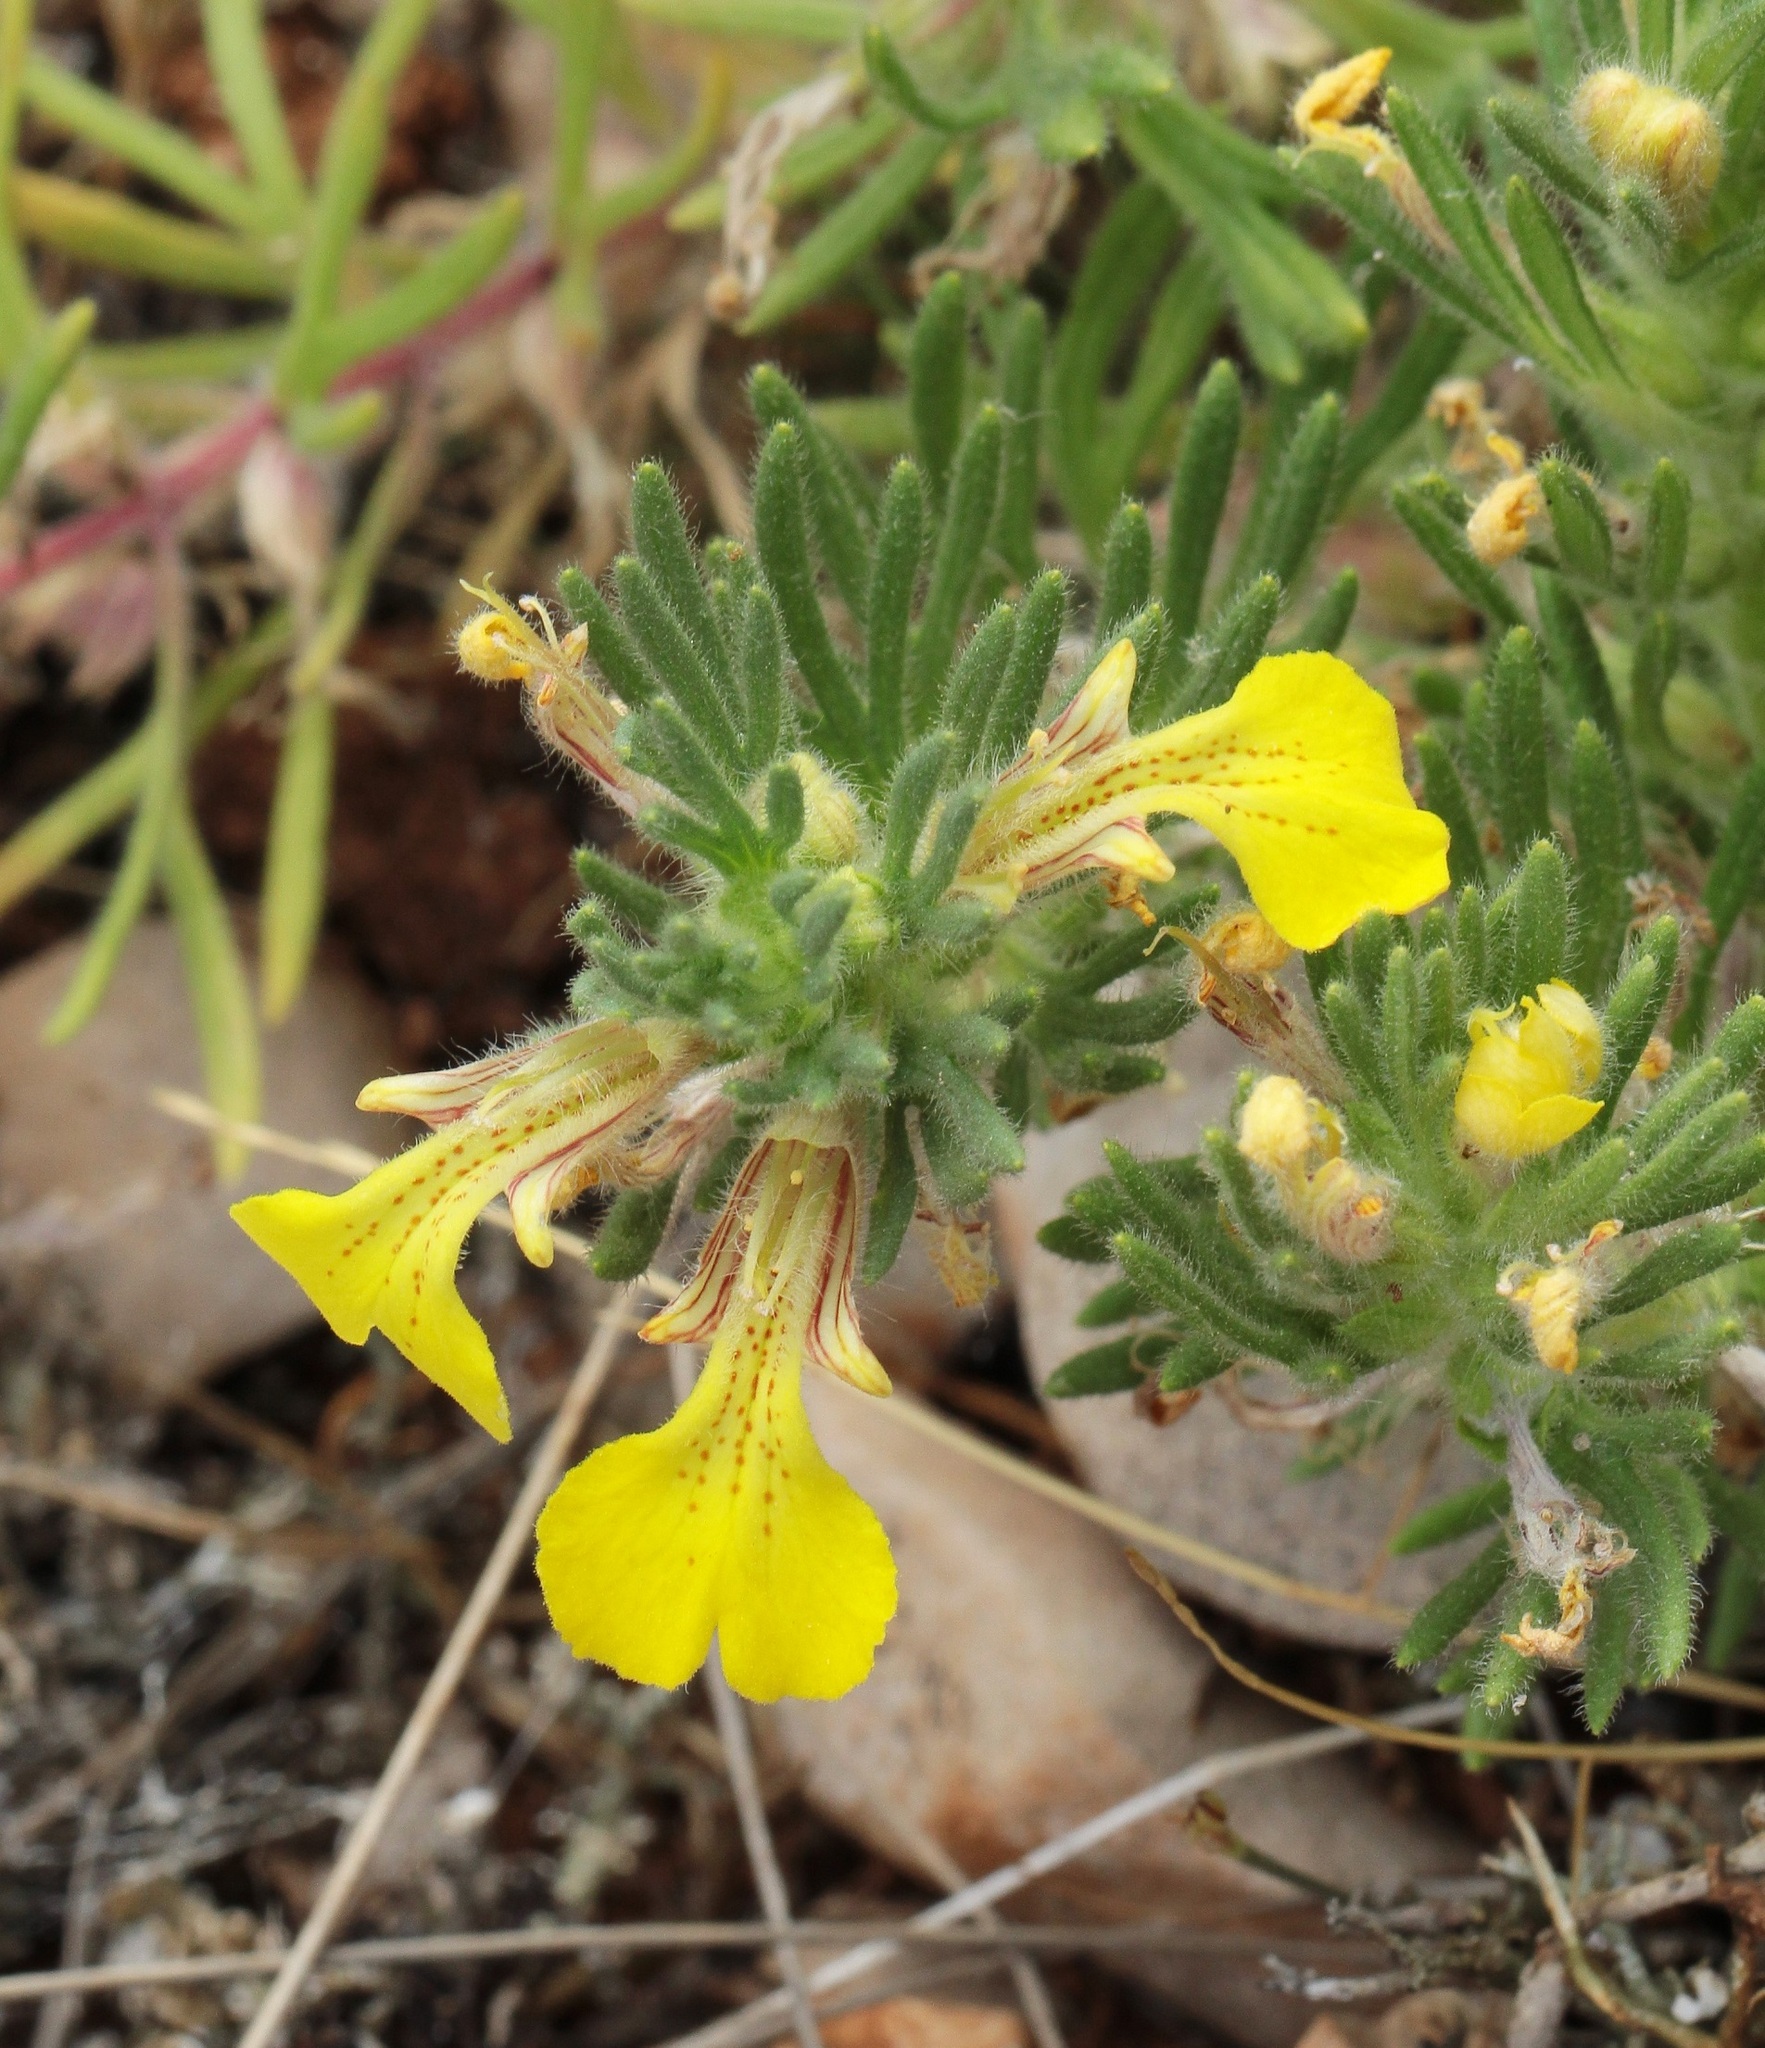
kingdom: Plantae
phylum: Tracheophyta
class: Magnoliopsida
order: Lamiales
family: Lamiaceae
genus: Ajuga
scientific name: Ajuga chamaepitys
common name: Ground-pine
